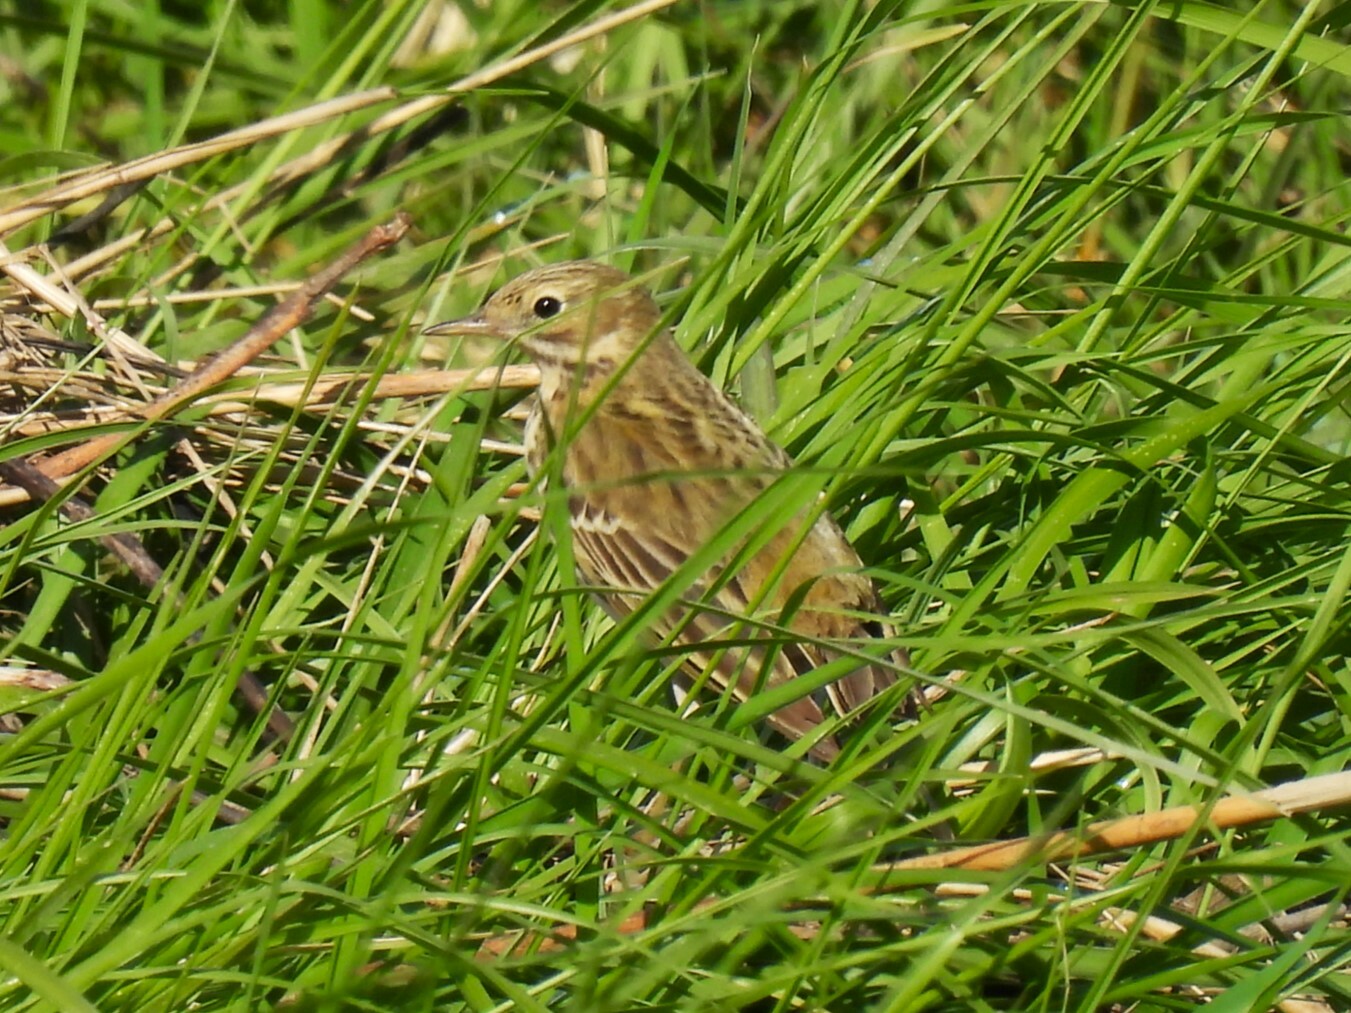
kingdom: Animalia
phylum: Chordata
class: Aves
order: Passeriformes
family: Motacillidae
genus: Anthus
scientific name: Anthus pratensis
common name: Meadow pipit
